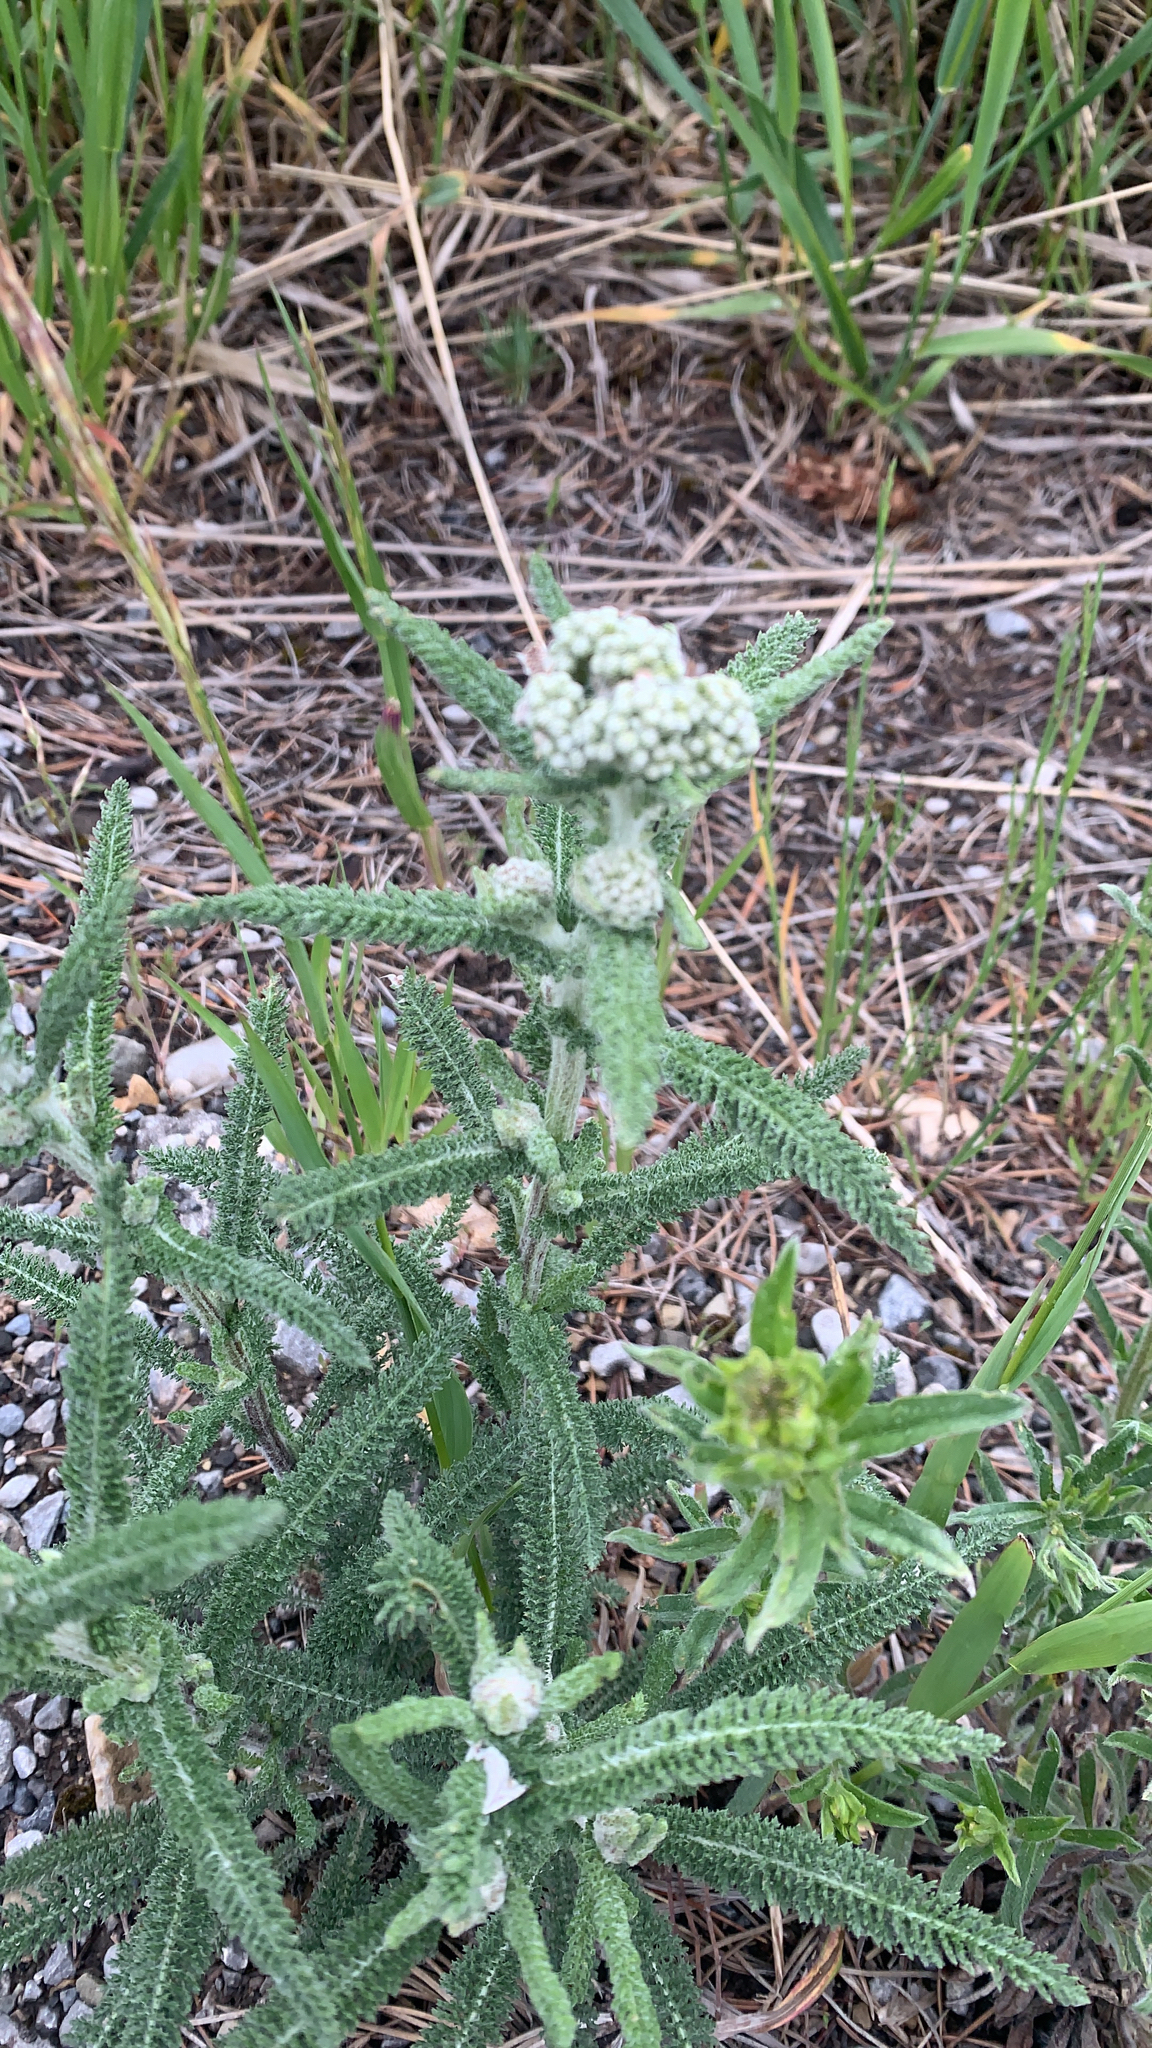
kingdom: Plantae
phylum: Tracheophyta
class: Magnoliopsida
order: Asterales
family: Asteraceae
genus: Achillea
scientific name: Achillea millefolium
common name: Yarrow
